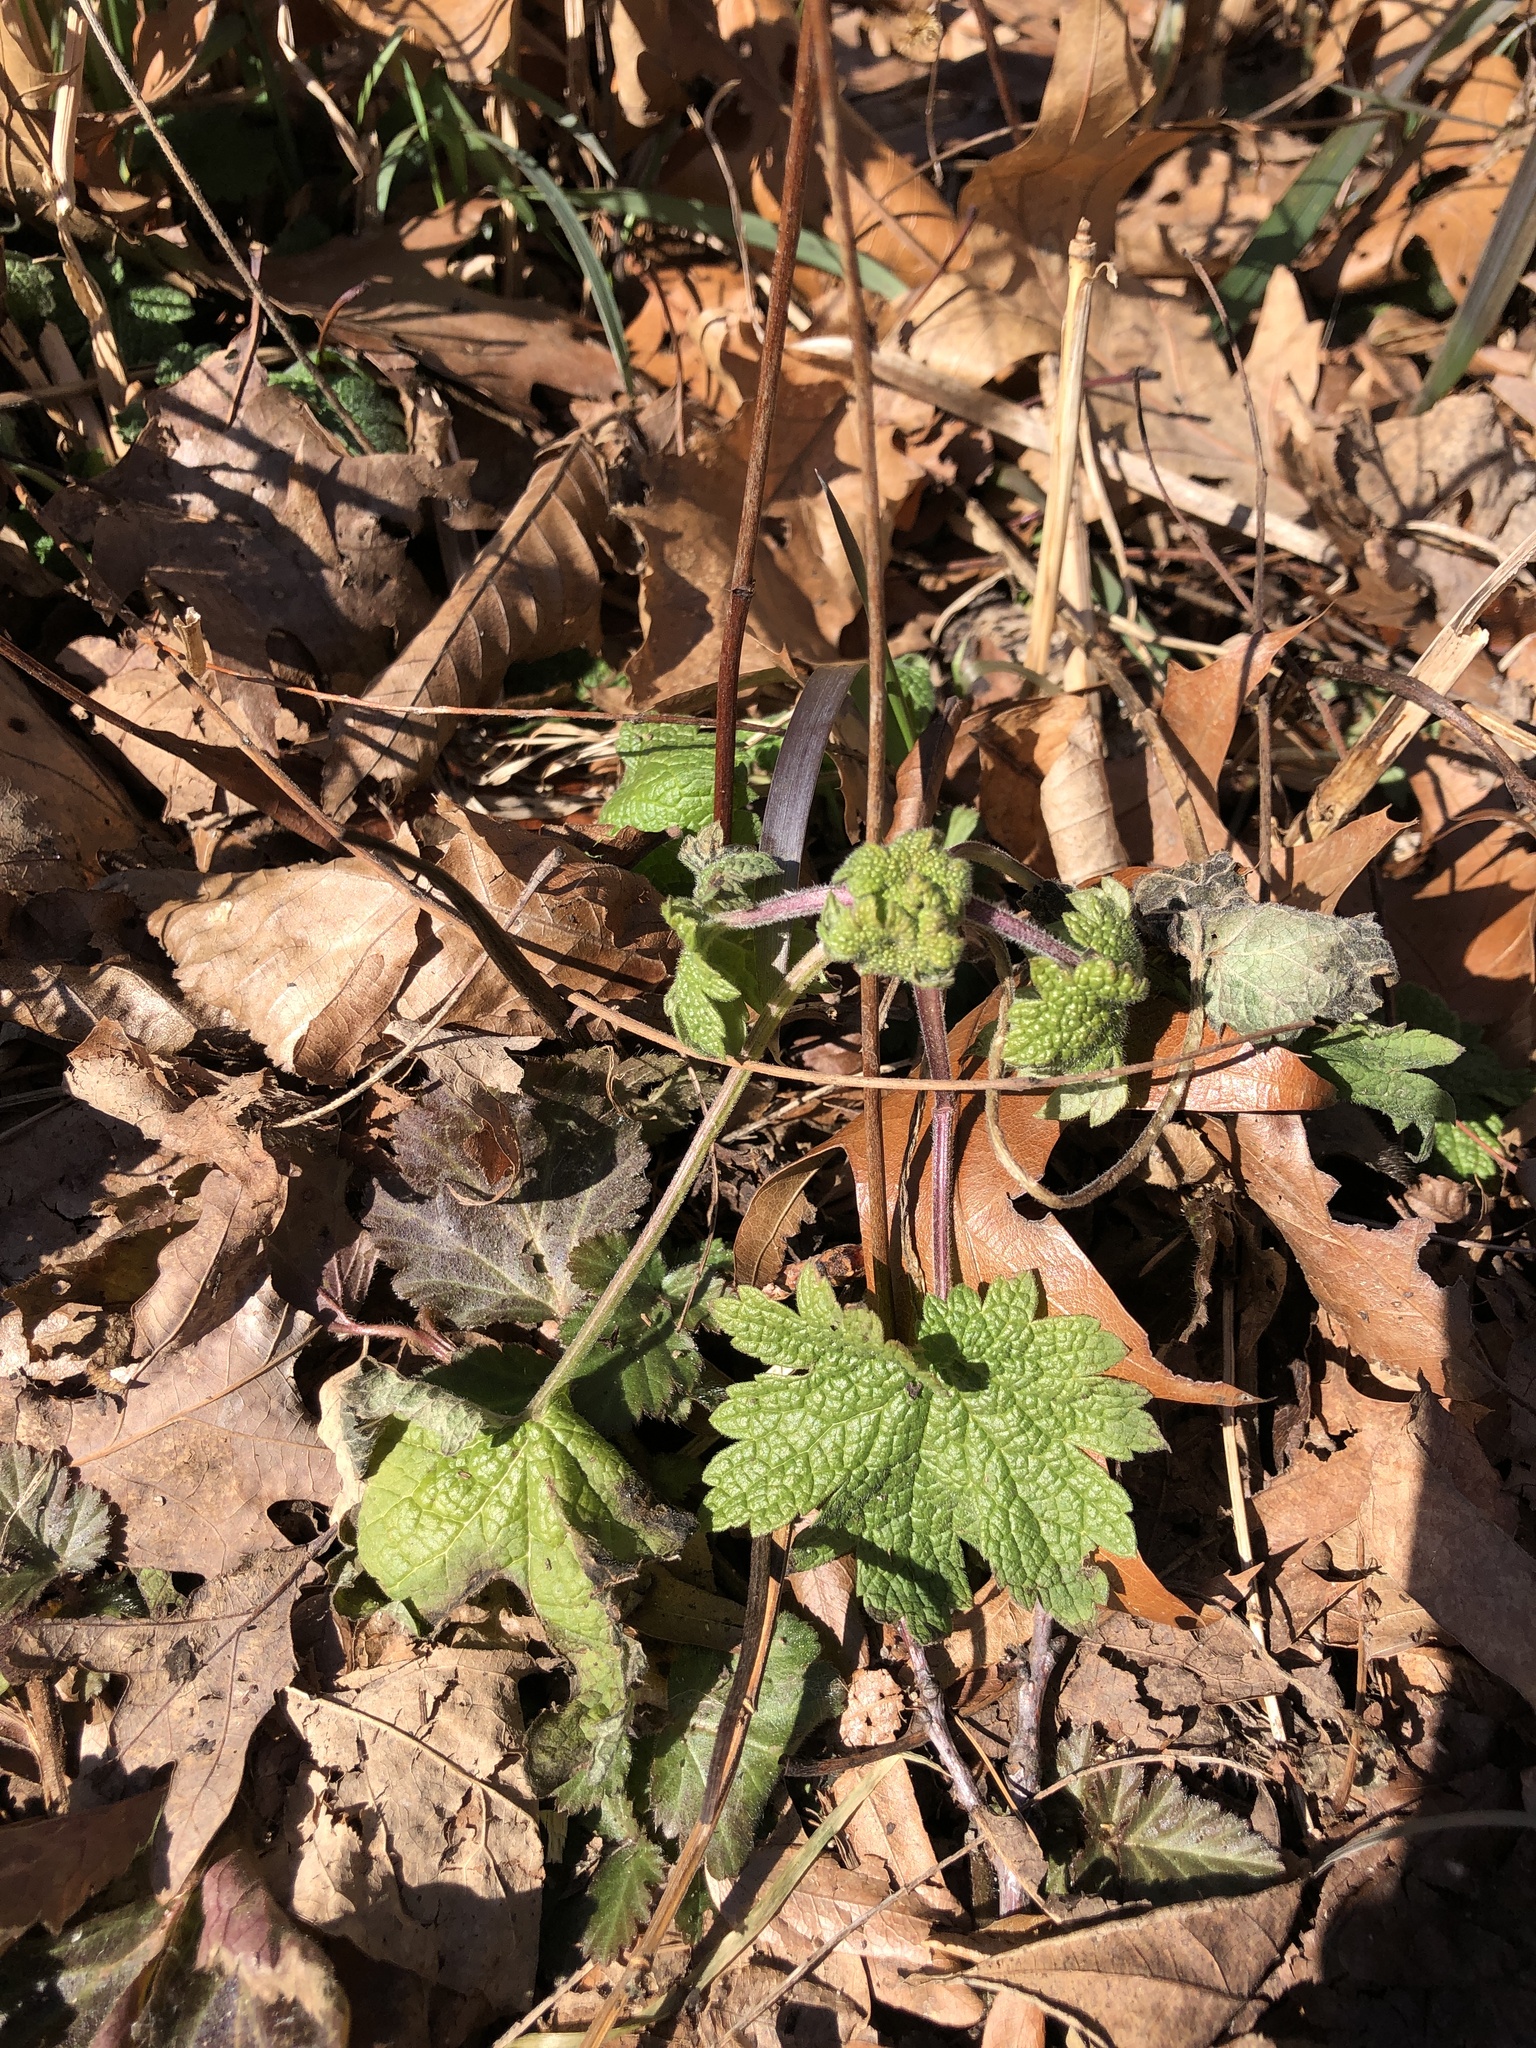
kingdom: Plantae
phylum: Tracheophyta
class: Magnoliopsida
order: Lamiales
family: Lamiaceae
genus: Leonurus
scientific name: Leonurus cardiaca
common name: Motherwort
